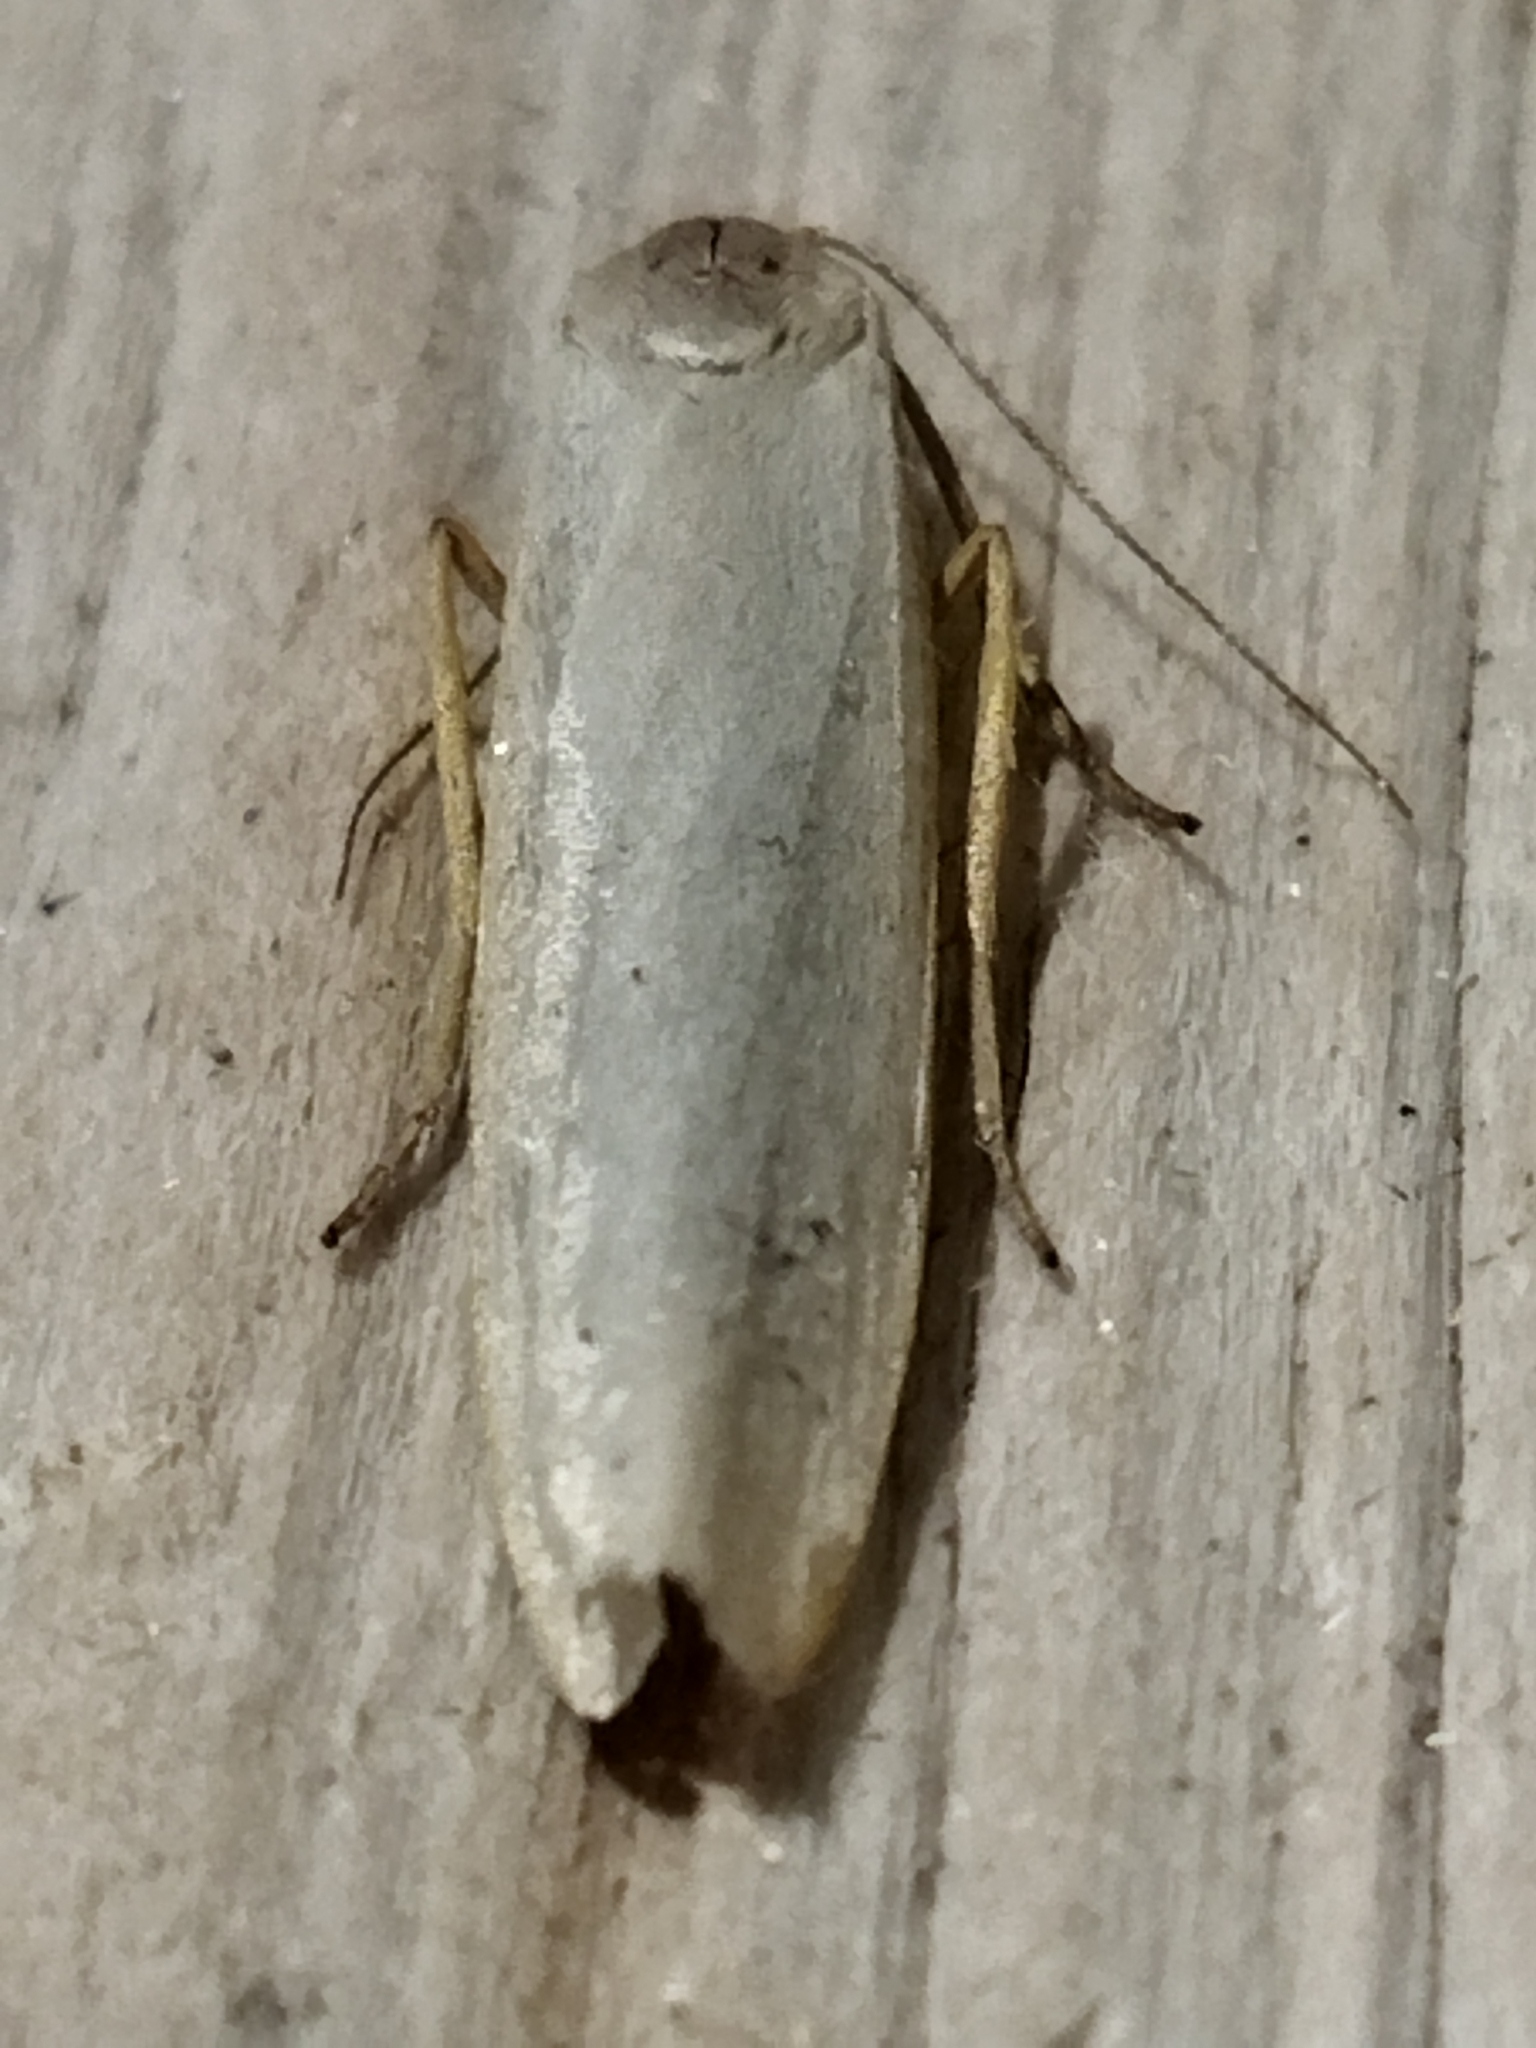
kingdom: Animalia
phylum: Arthropoda
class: Insecta
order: Lepidoptera
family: Erebidae
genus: Eilema
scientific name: Eilema caniola
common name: Hoary footman
